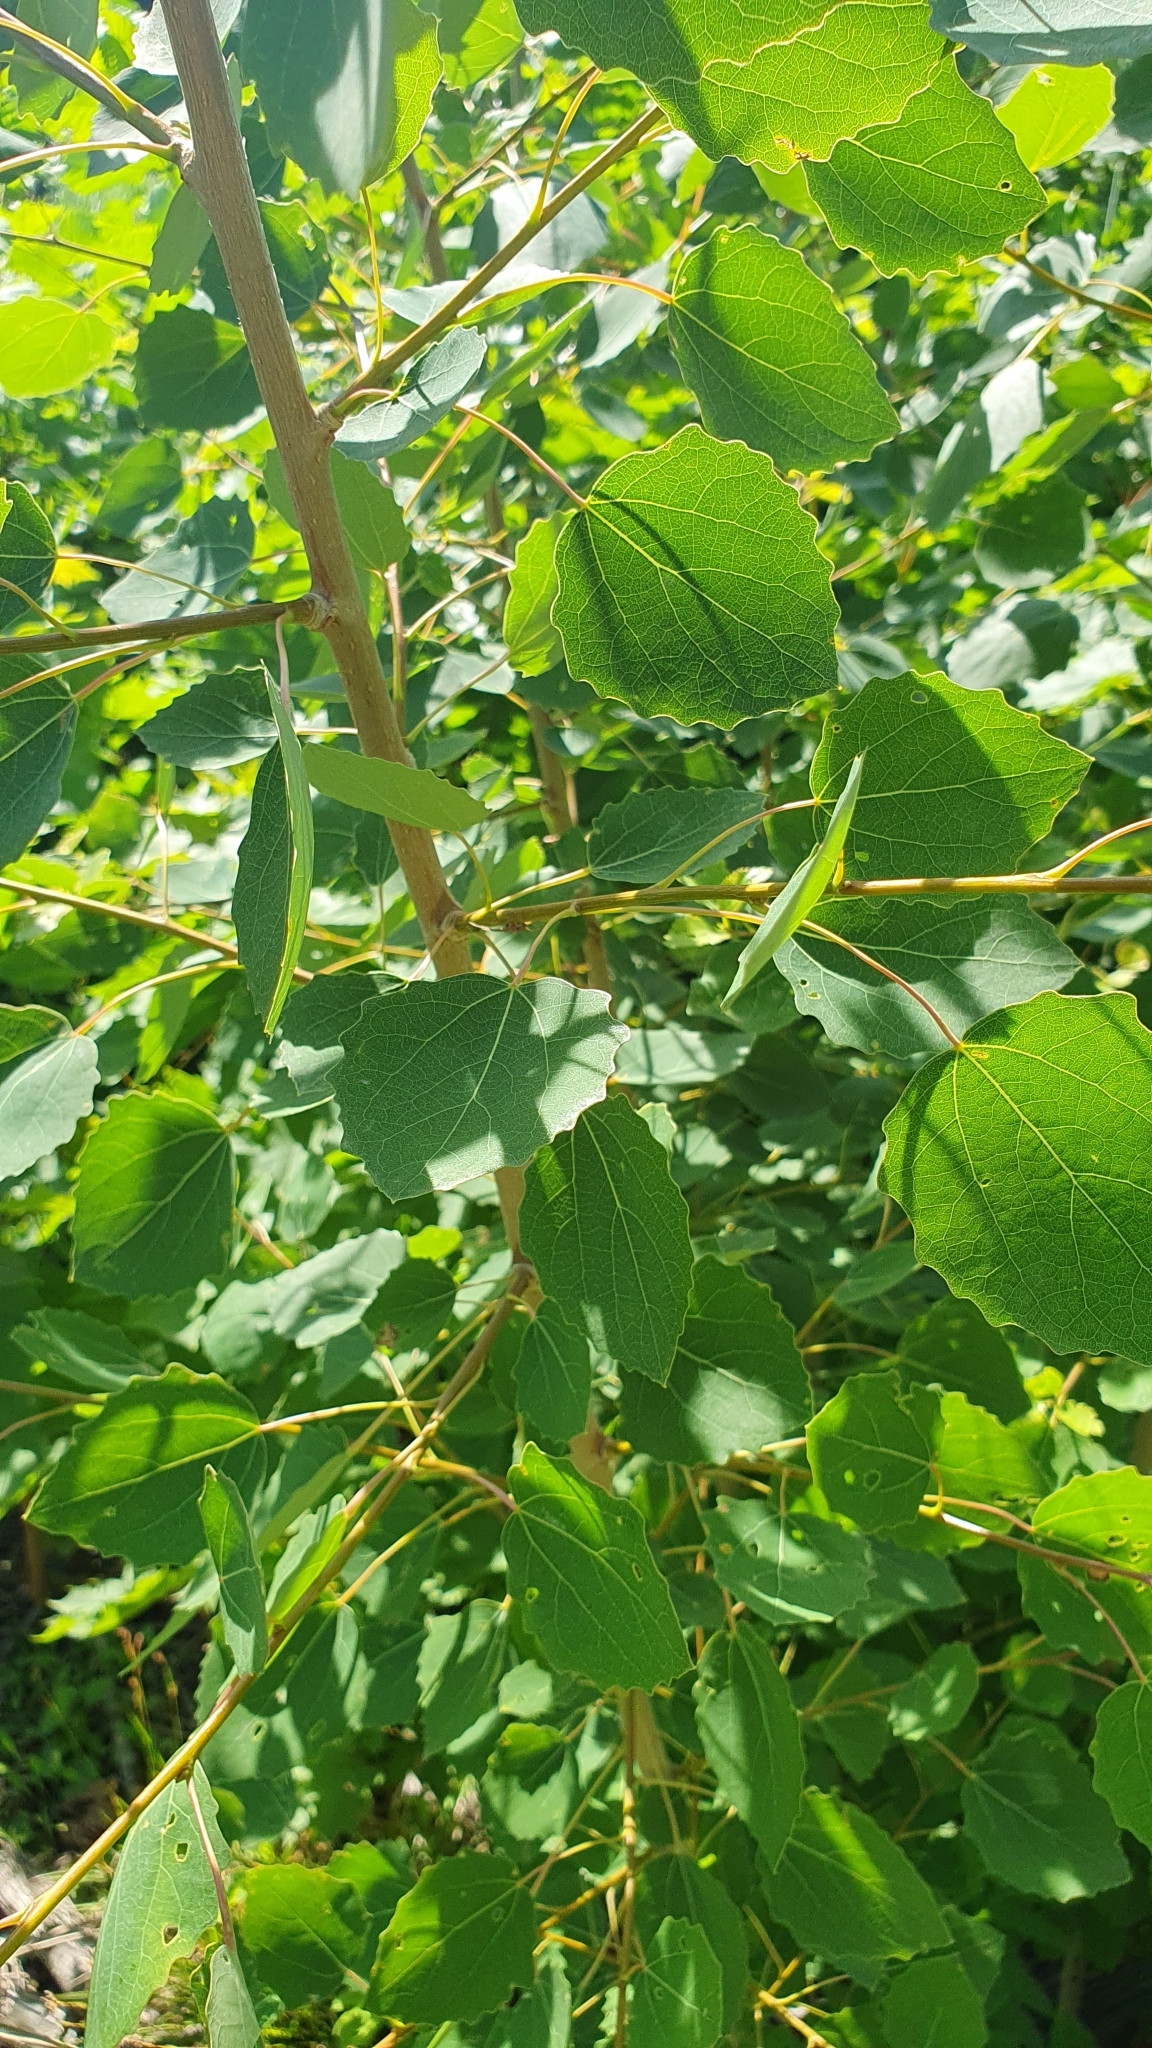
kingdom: Plantae
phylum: Tracheophyta
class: Magnoliopsida
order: Malpighiales
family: Salicaceae
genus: Populus
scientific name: Populus tremula
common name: European aspen
